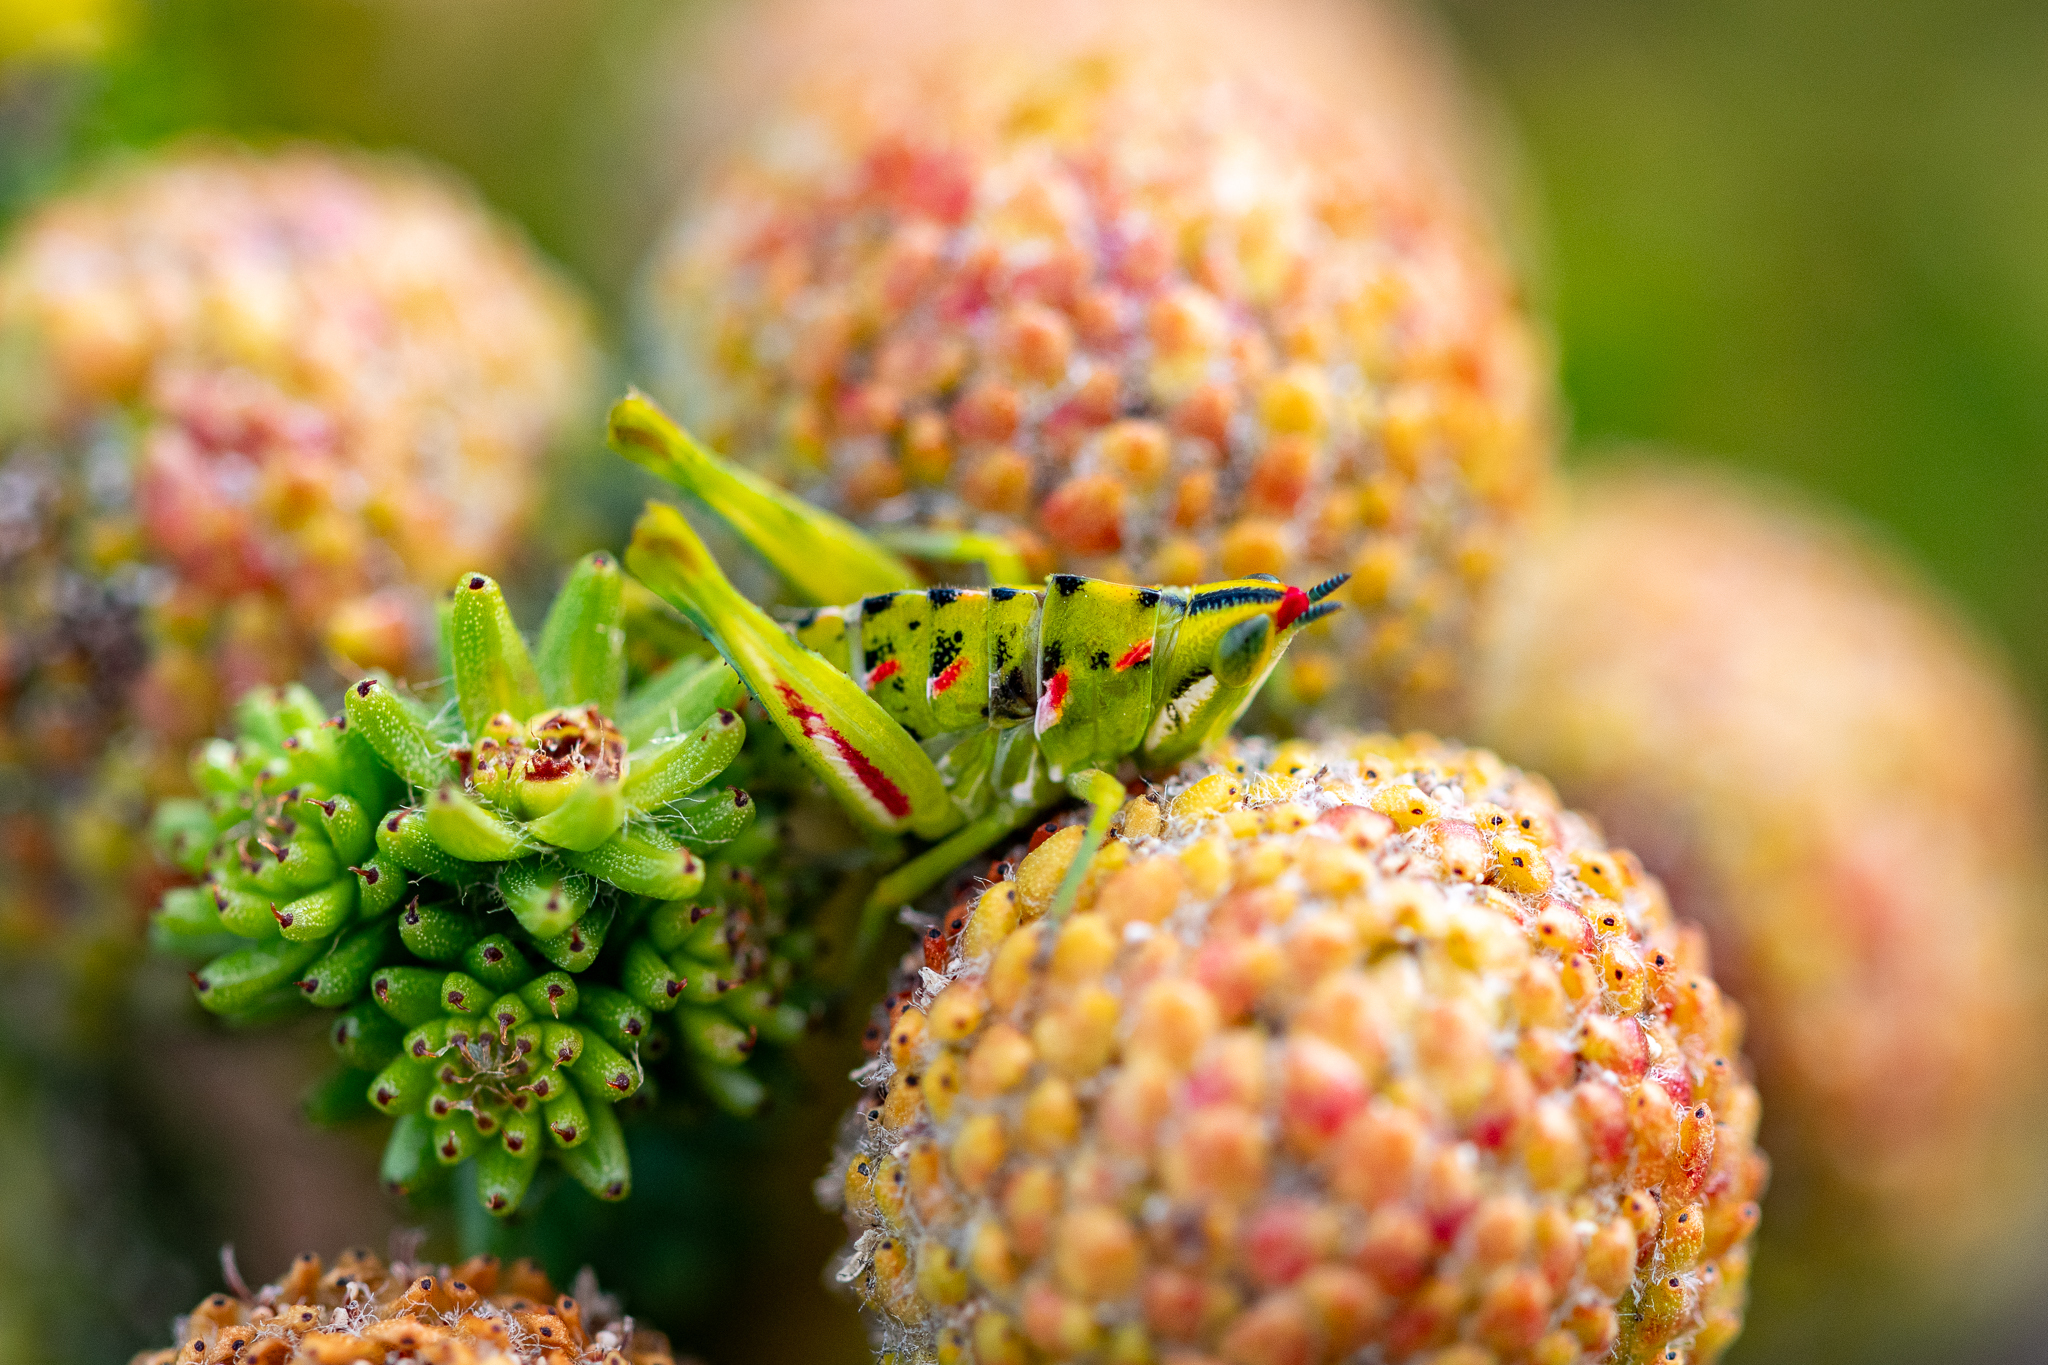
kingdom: Animalia
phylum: Arthropoda
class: Insecta
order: Orthoptera
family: Thericleidae
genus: Thericlesiella
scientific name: Thericlesiella meridionalis
